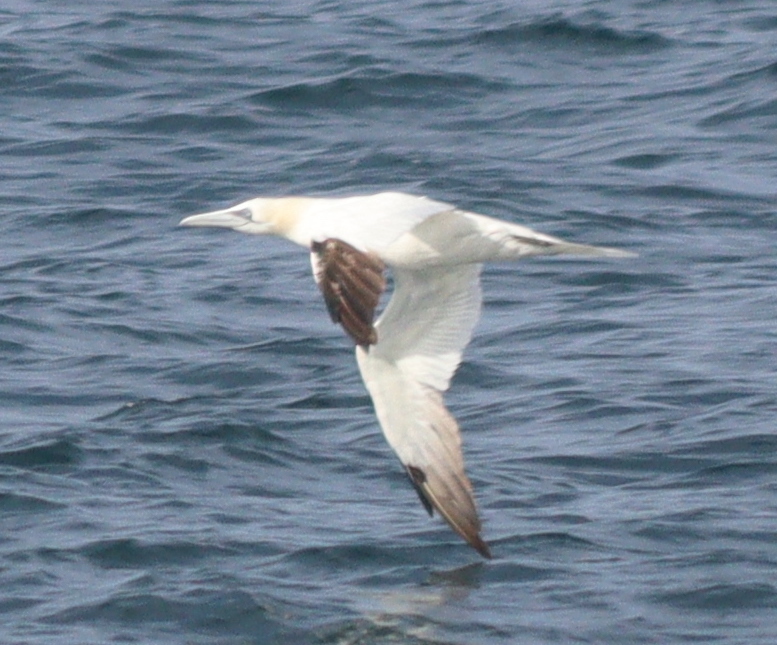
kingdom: Animalia
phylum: Chordata
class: Aves
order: Suliformes
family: Sulidae
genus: Morus
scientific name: Morus bassanus
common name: Northern gannet
